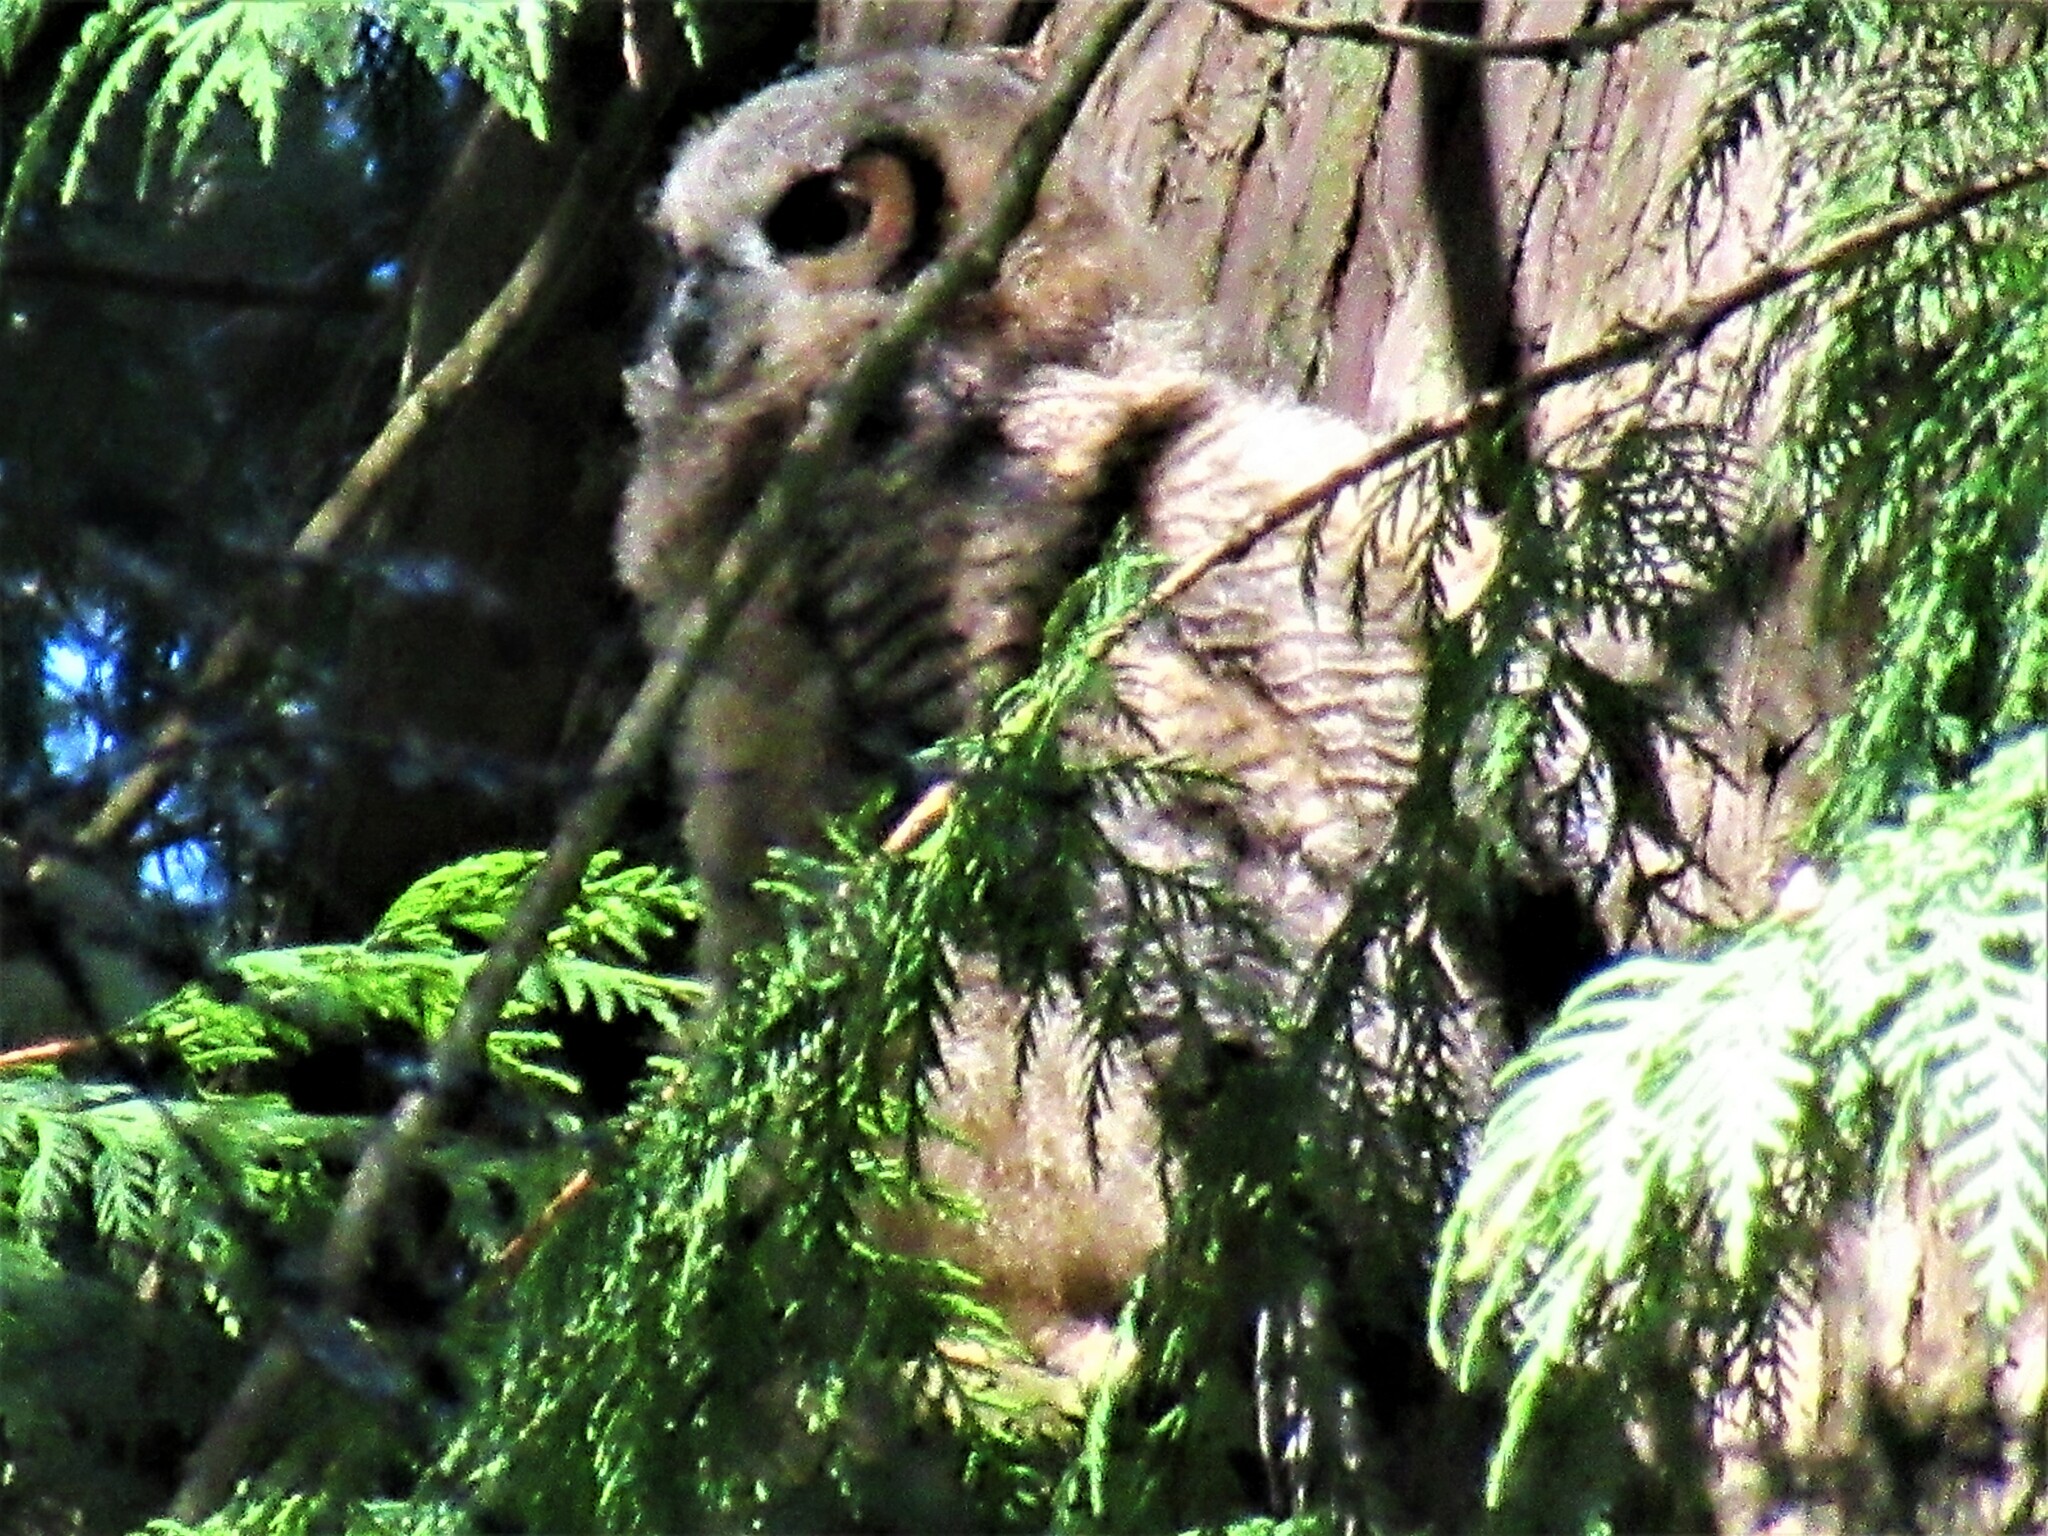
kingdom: Animalia
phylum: Chordata
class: Aves
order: Strigiformes
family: Strigidae
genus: Bubo
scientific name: Bubo virginianus
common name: Great horned owl
